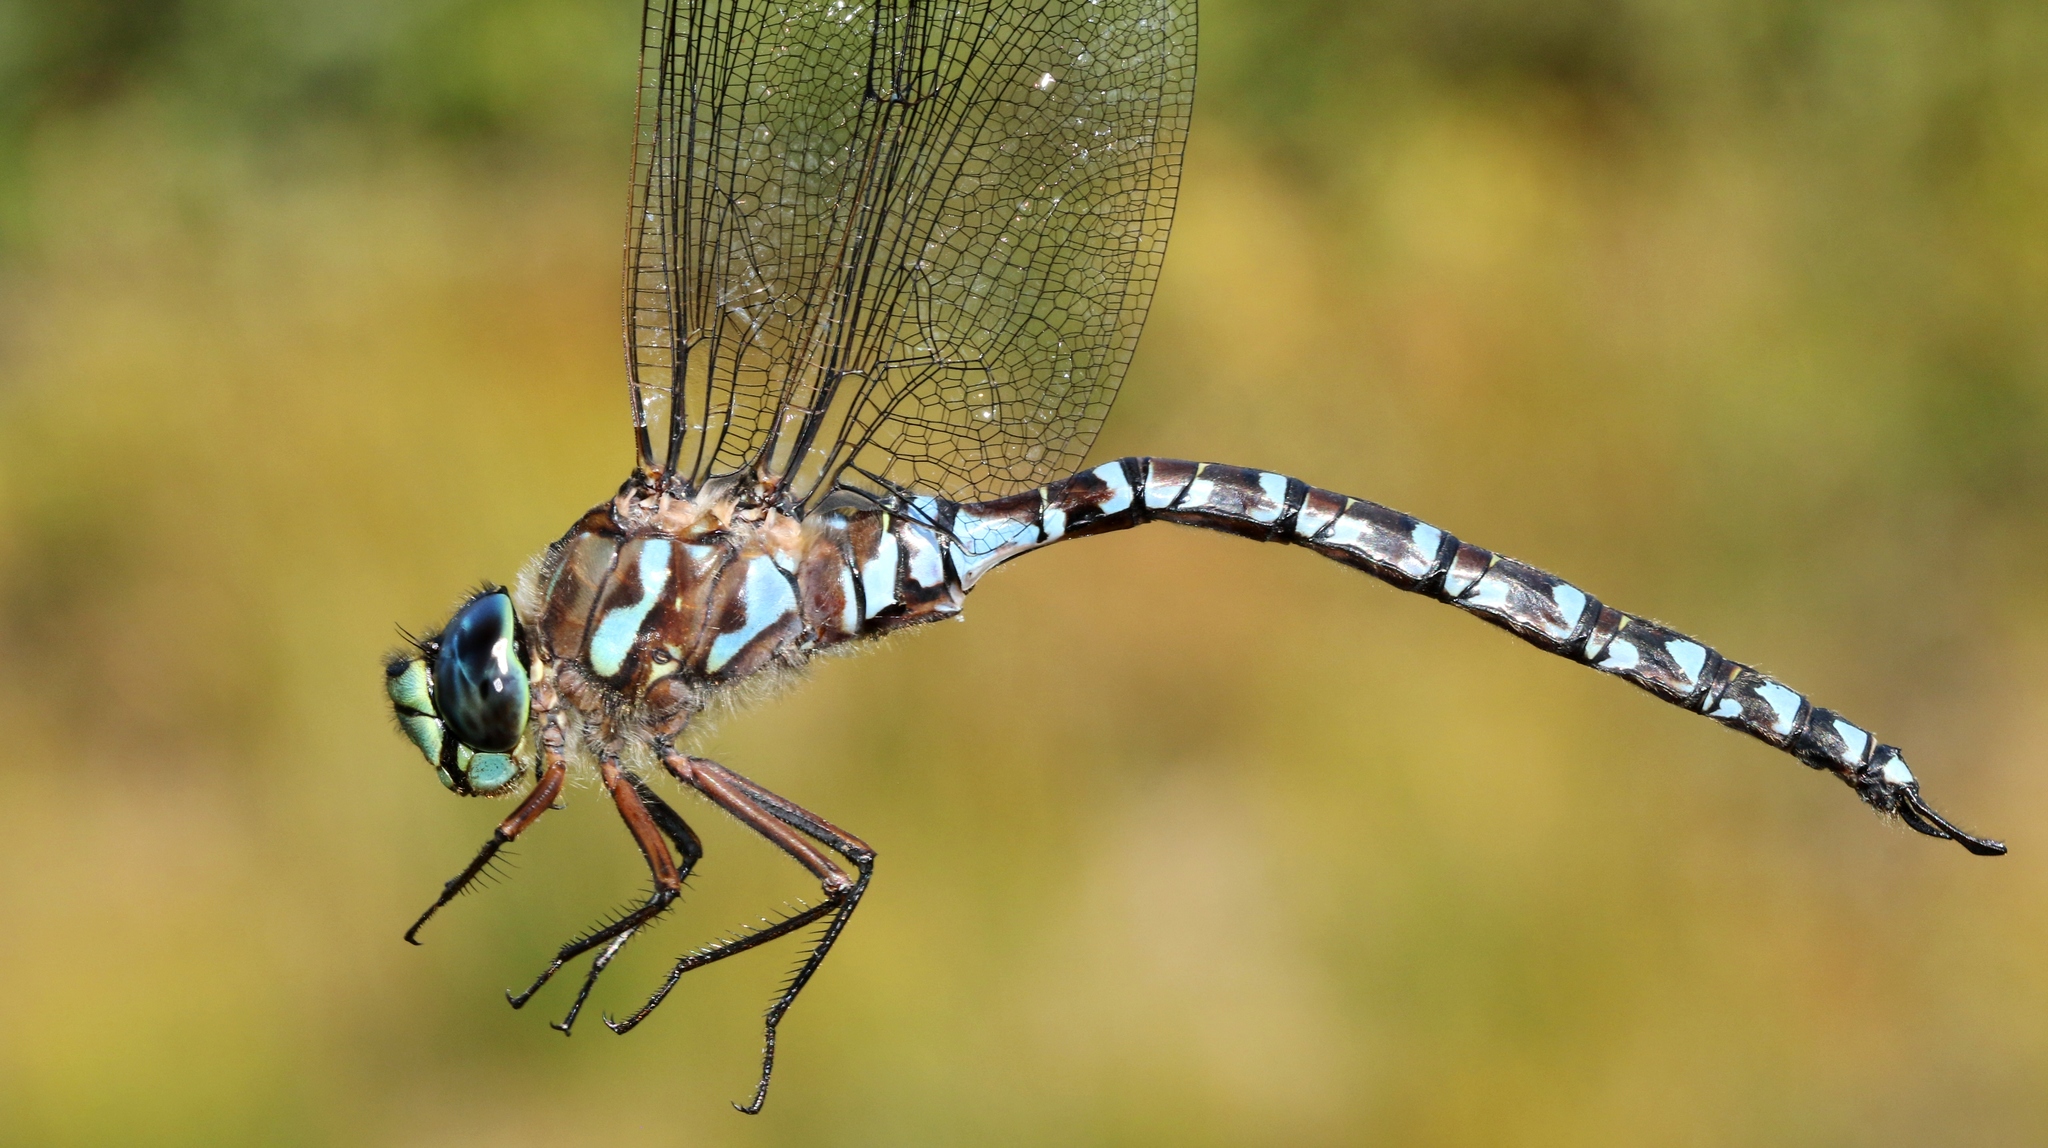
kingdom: Animalia
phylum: Arthropoda
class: Insecta
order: Odonata
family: Aeshnidae
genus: Aeshna
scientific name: Aeshna eremita
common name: Lake darner
